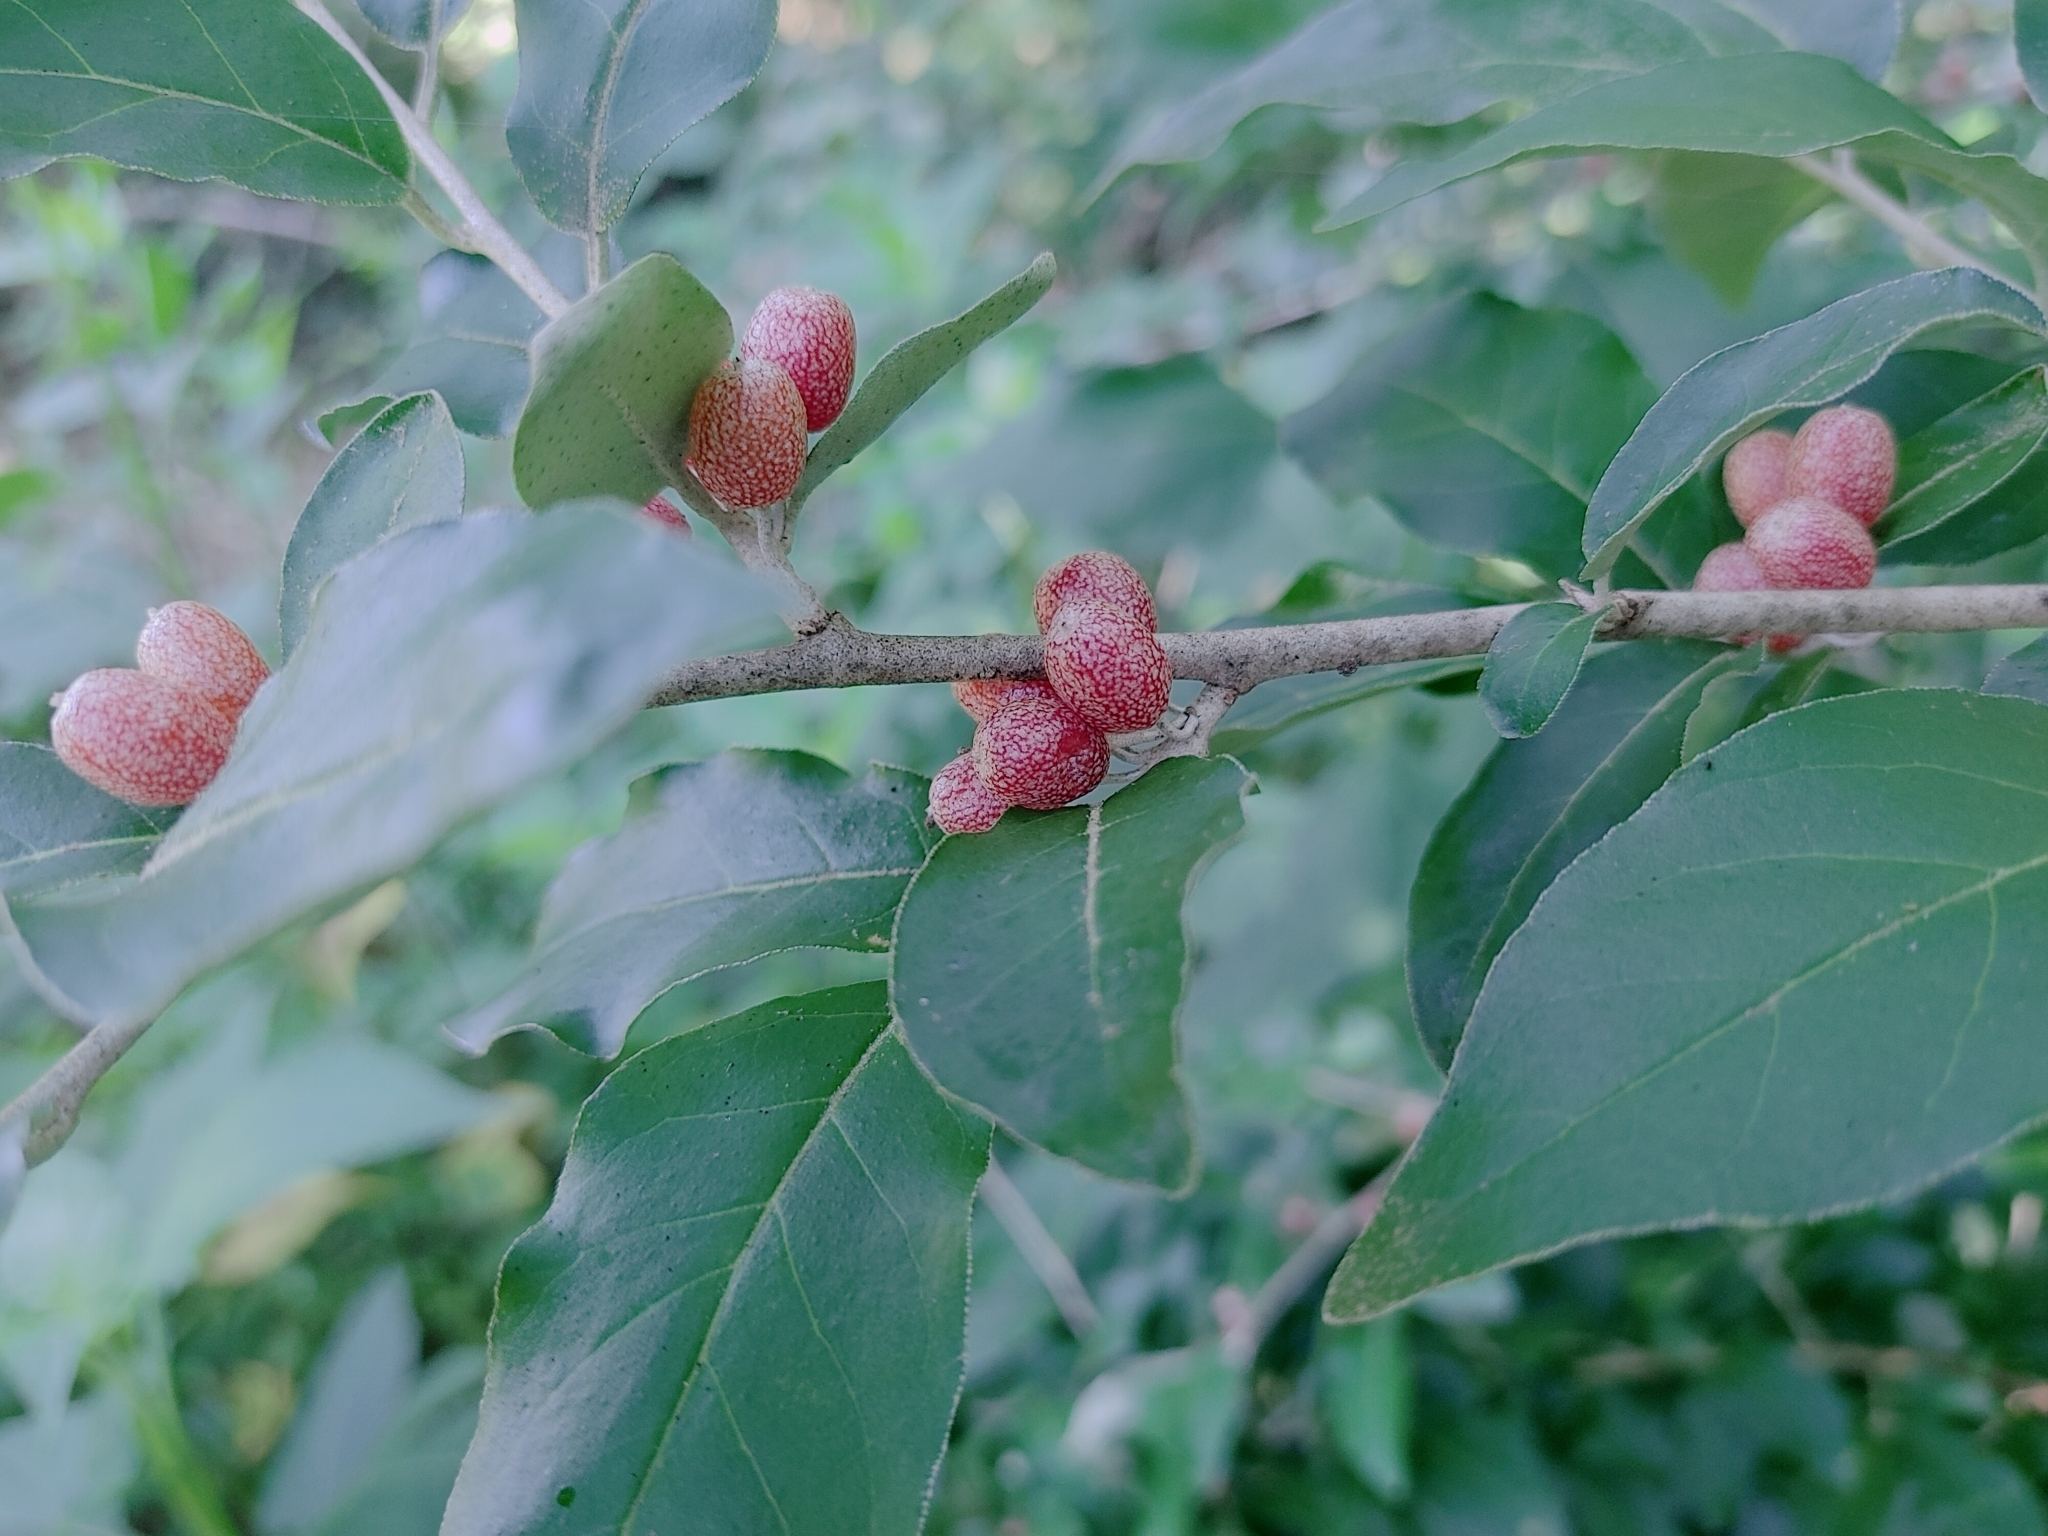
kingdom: Plantae
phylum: Tracheophyta
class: Magnoliopsida
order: Rosales
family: Elaeagnaceae
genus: Elaeagnus
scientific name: Elaeagnus umbellata
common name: Autumn olive
